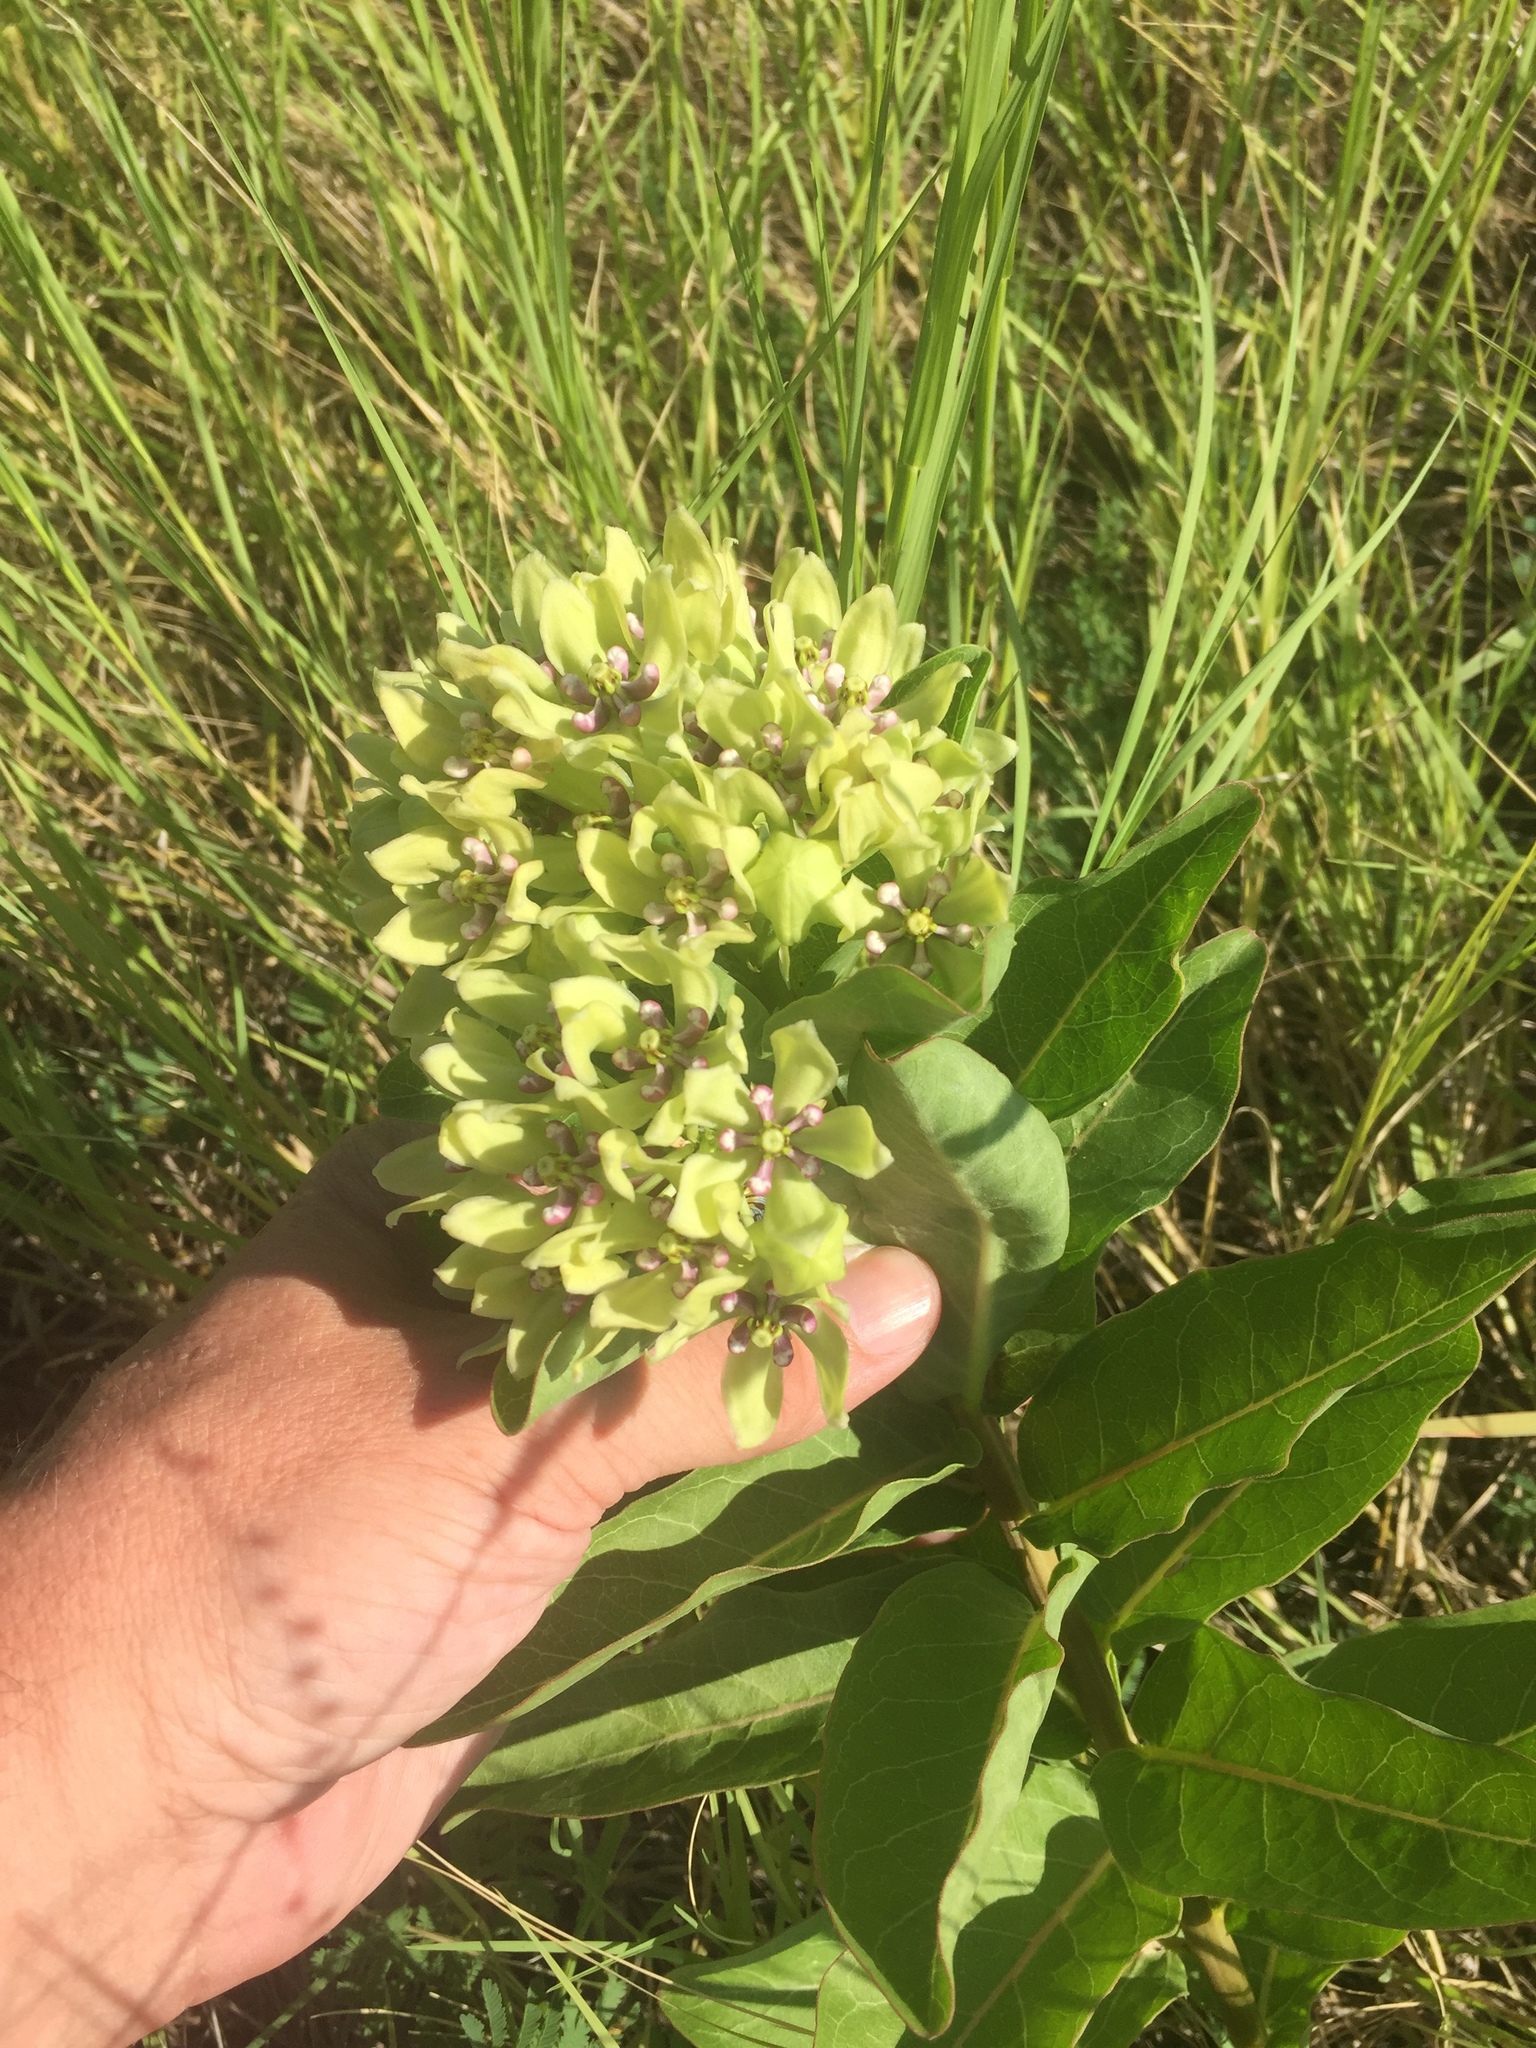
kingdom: Plantae
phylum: Tracheophyta
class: Magnoliopsida
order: Gentianales
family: Apocynaceae
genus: Asclepias
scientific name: Asclepias viridis
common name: Antelope-horns
